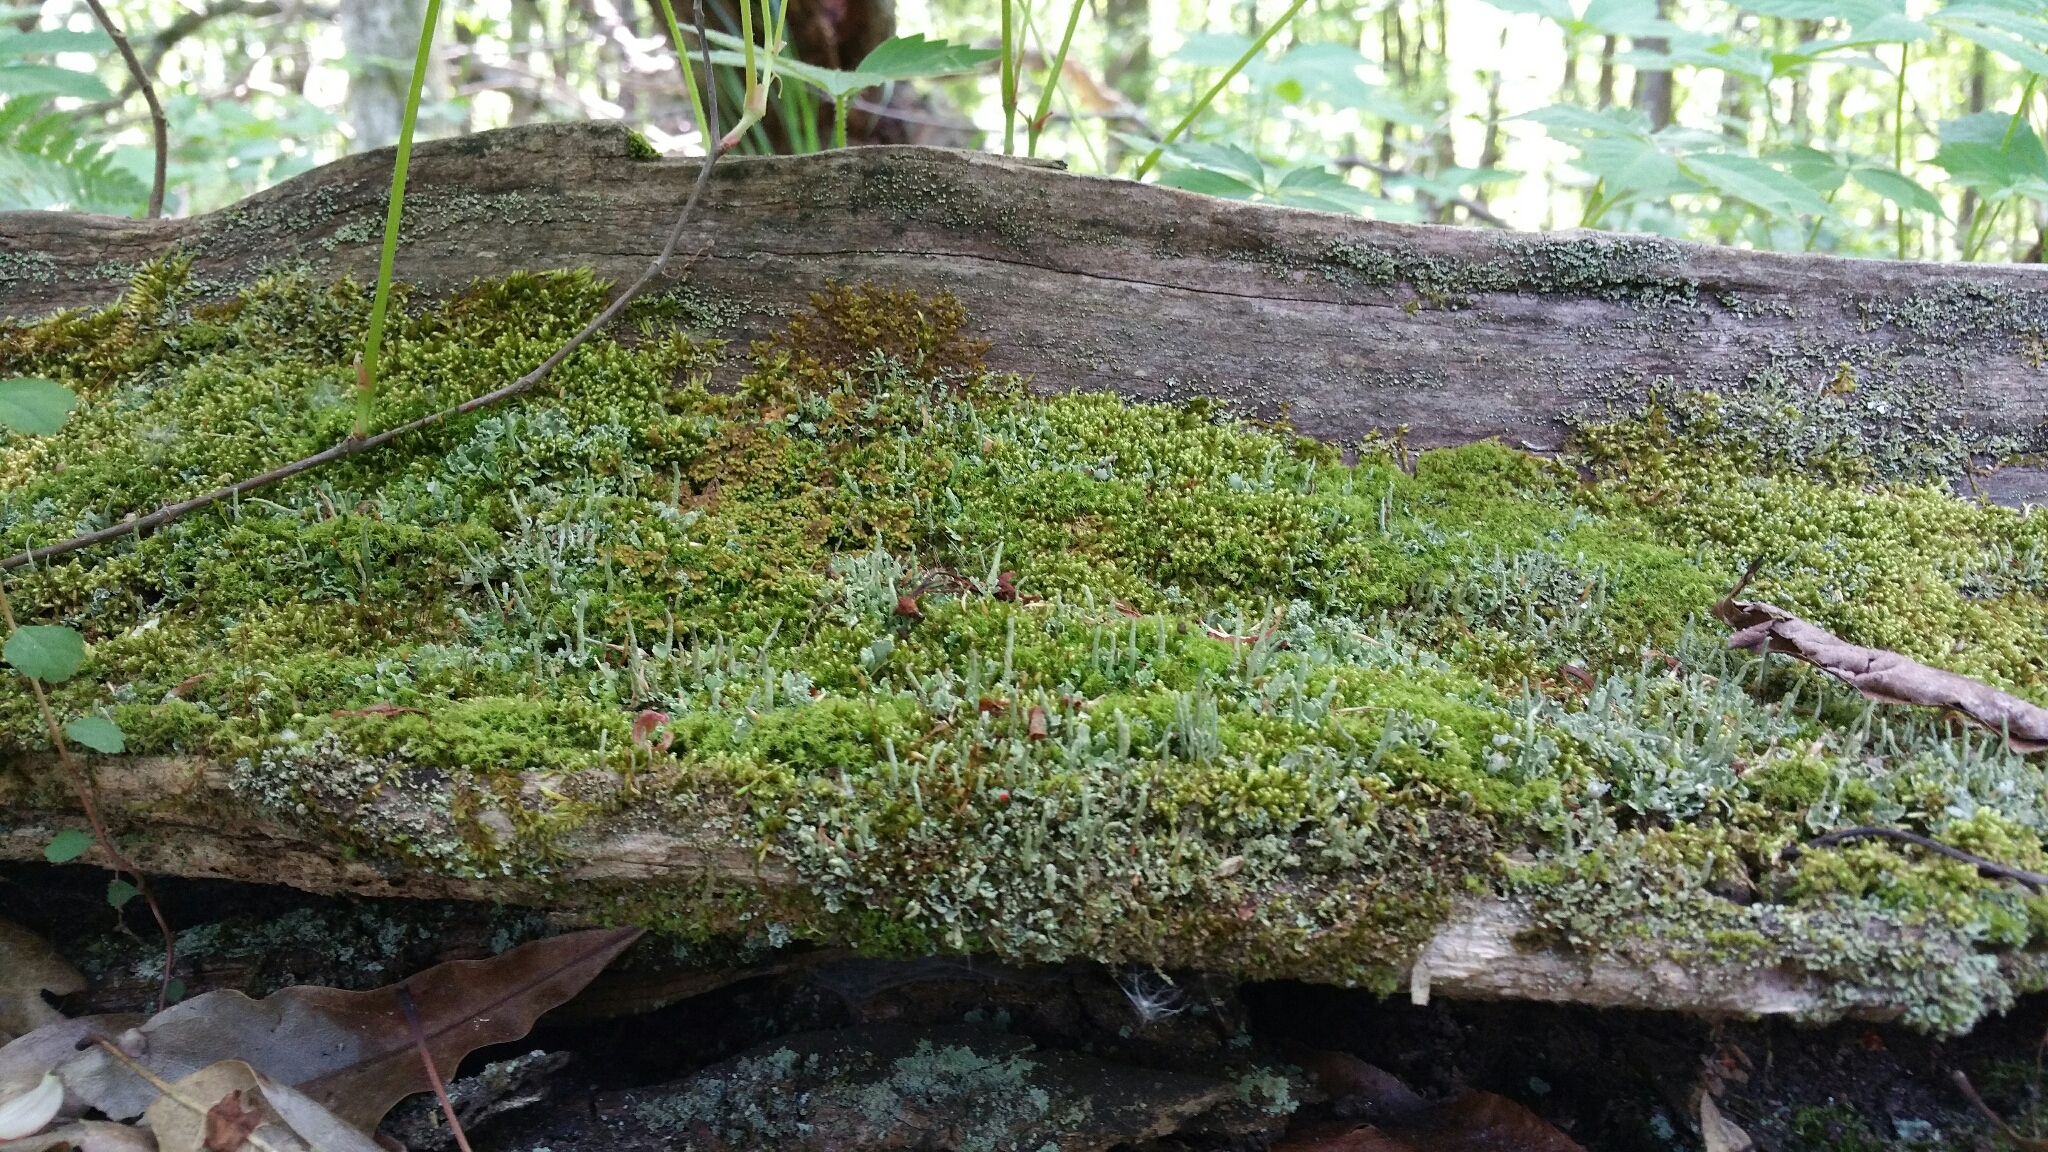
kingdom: Fungi
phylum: Ascomycota
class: Lecanoromycetes
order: Lecanorales
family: Cladoniaceae
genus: Cladonia
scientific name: Cladonia coniocraea
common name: Common powderhorn
